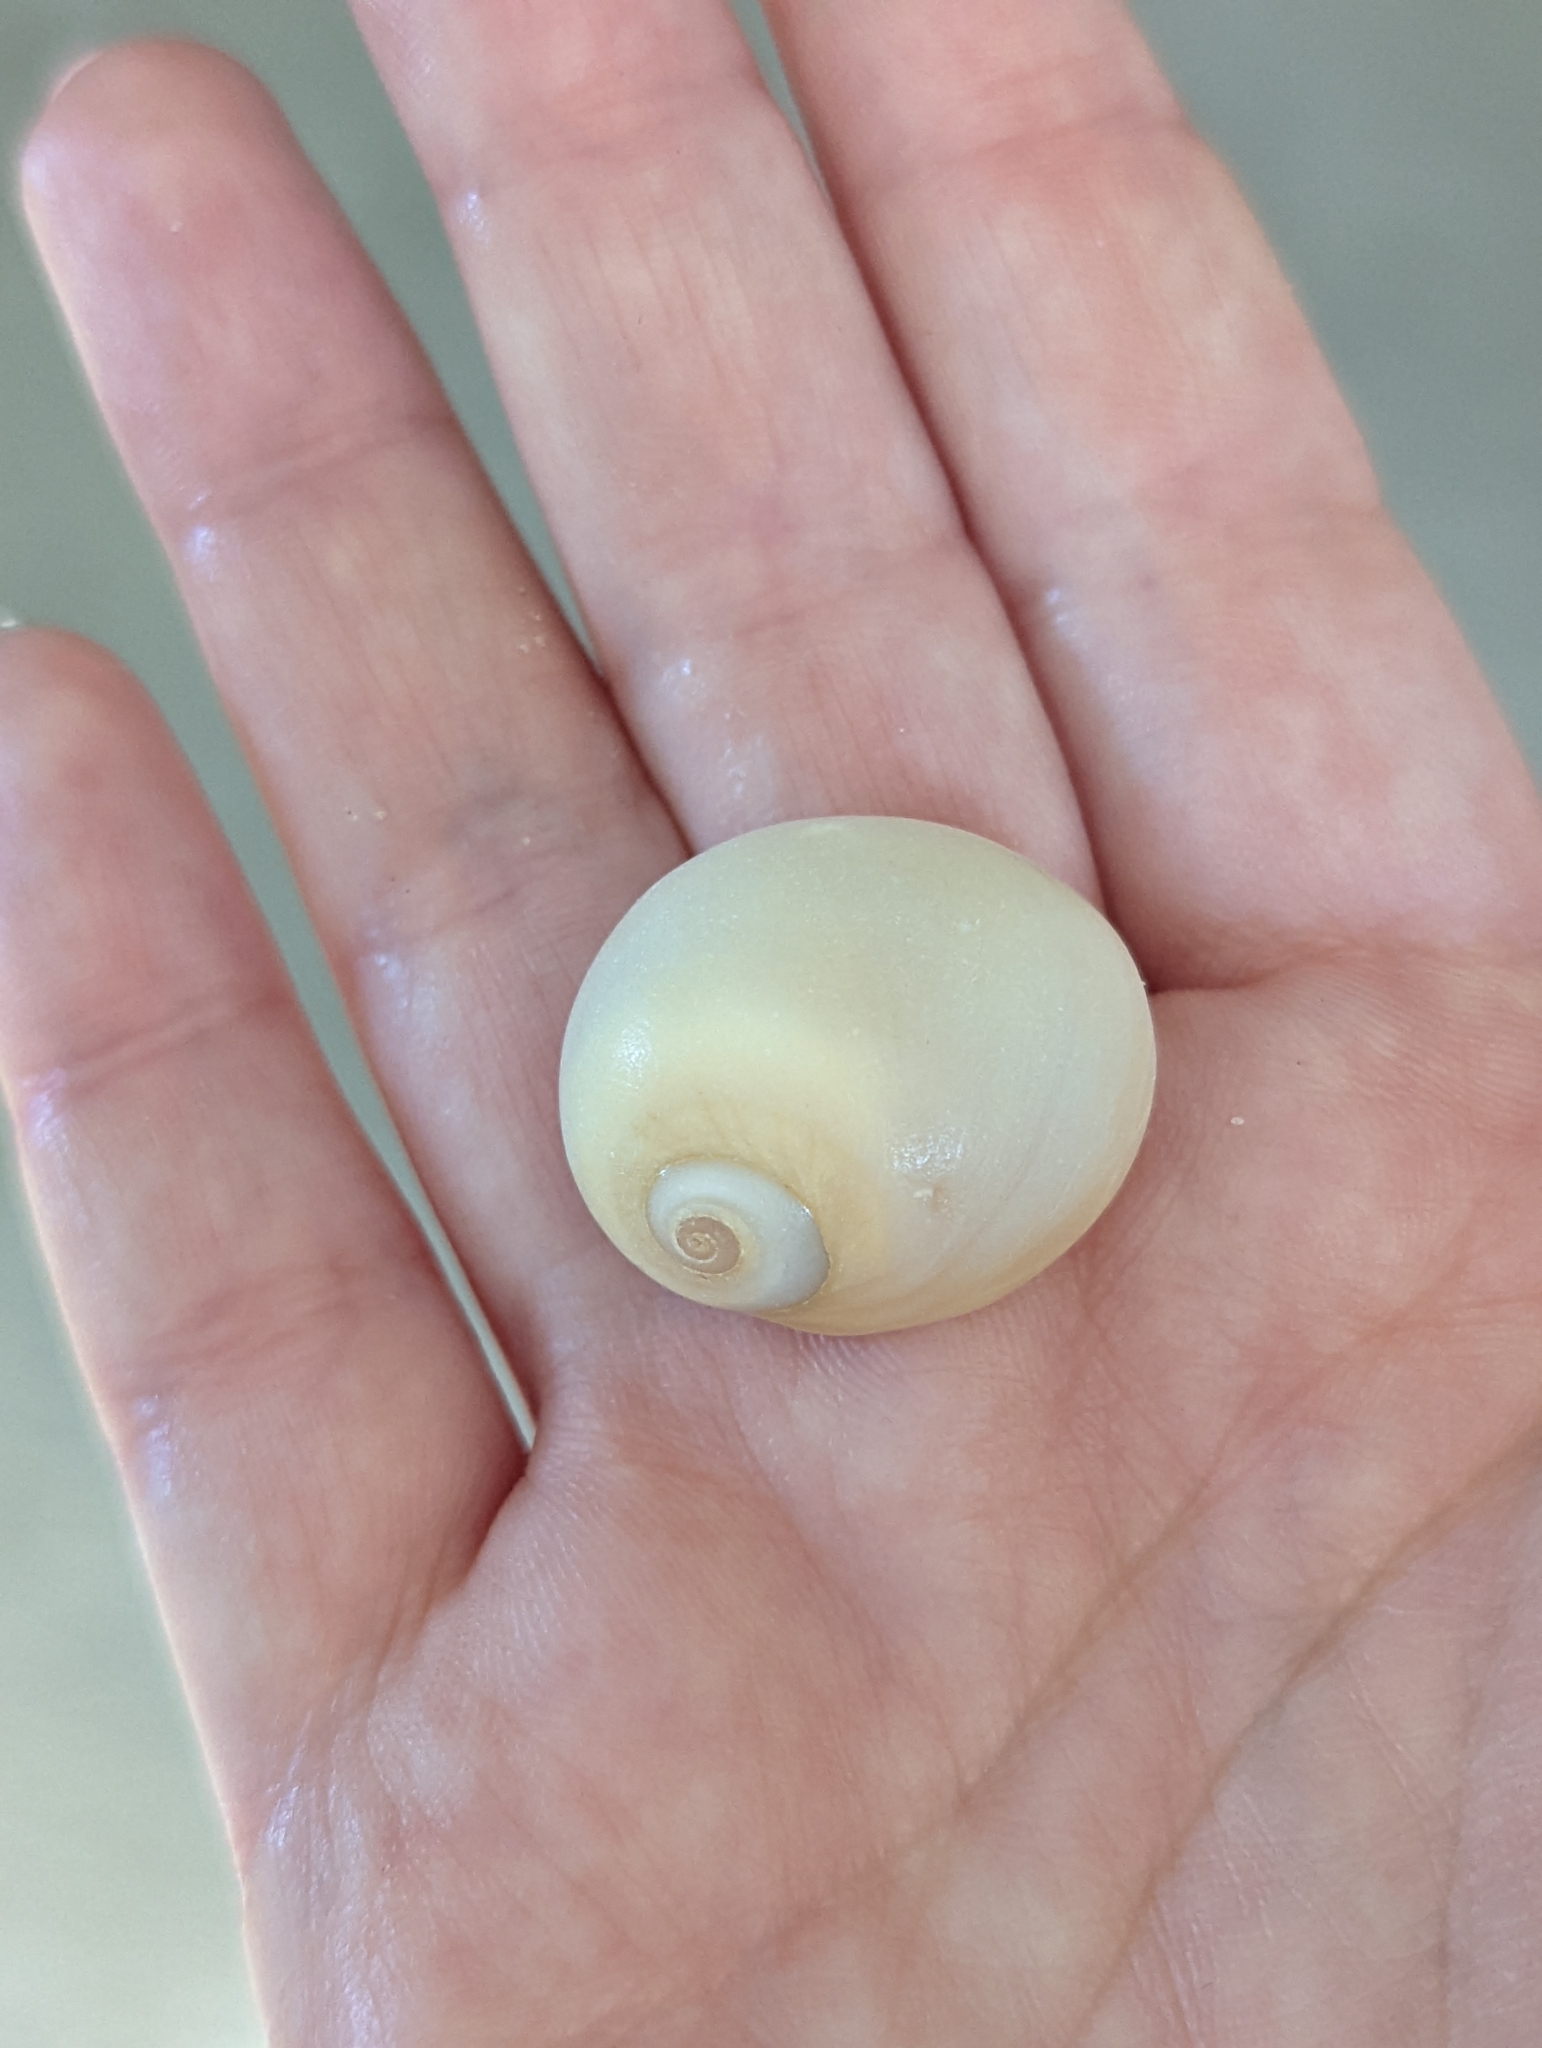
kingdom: Animalia
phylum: Mollusca
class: Gastropoda
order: Littorinimorpha
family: Naticidae
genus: Neverita
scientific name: Neverita didyma
